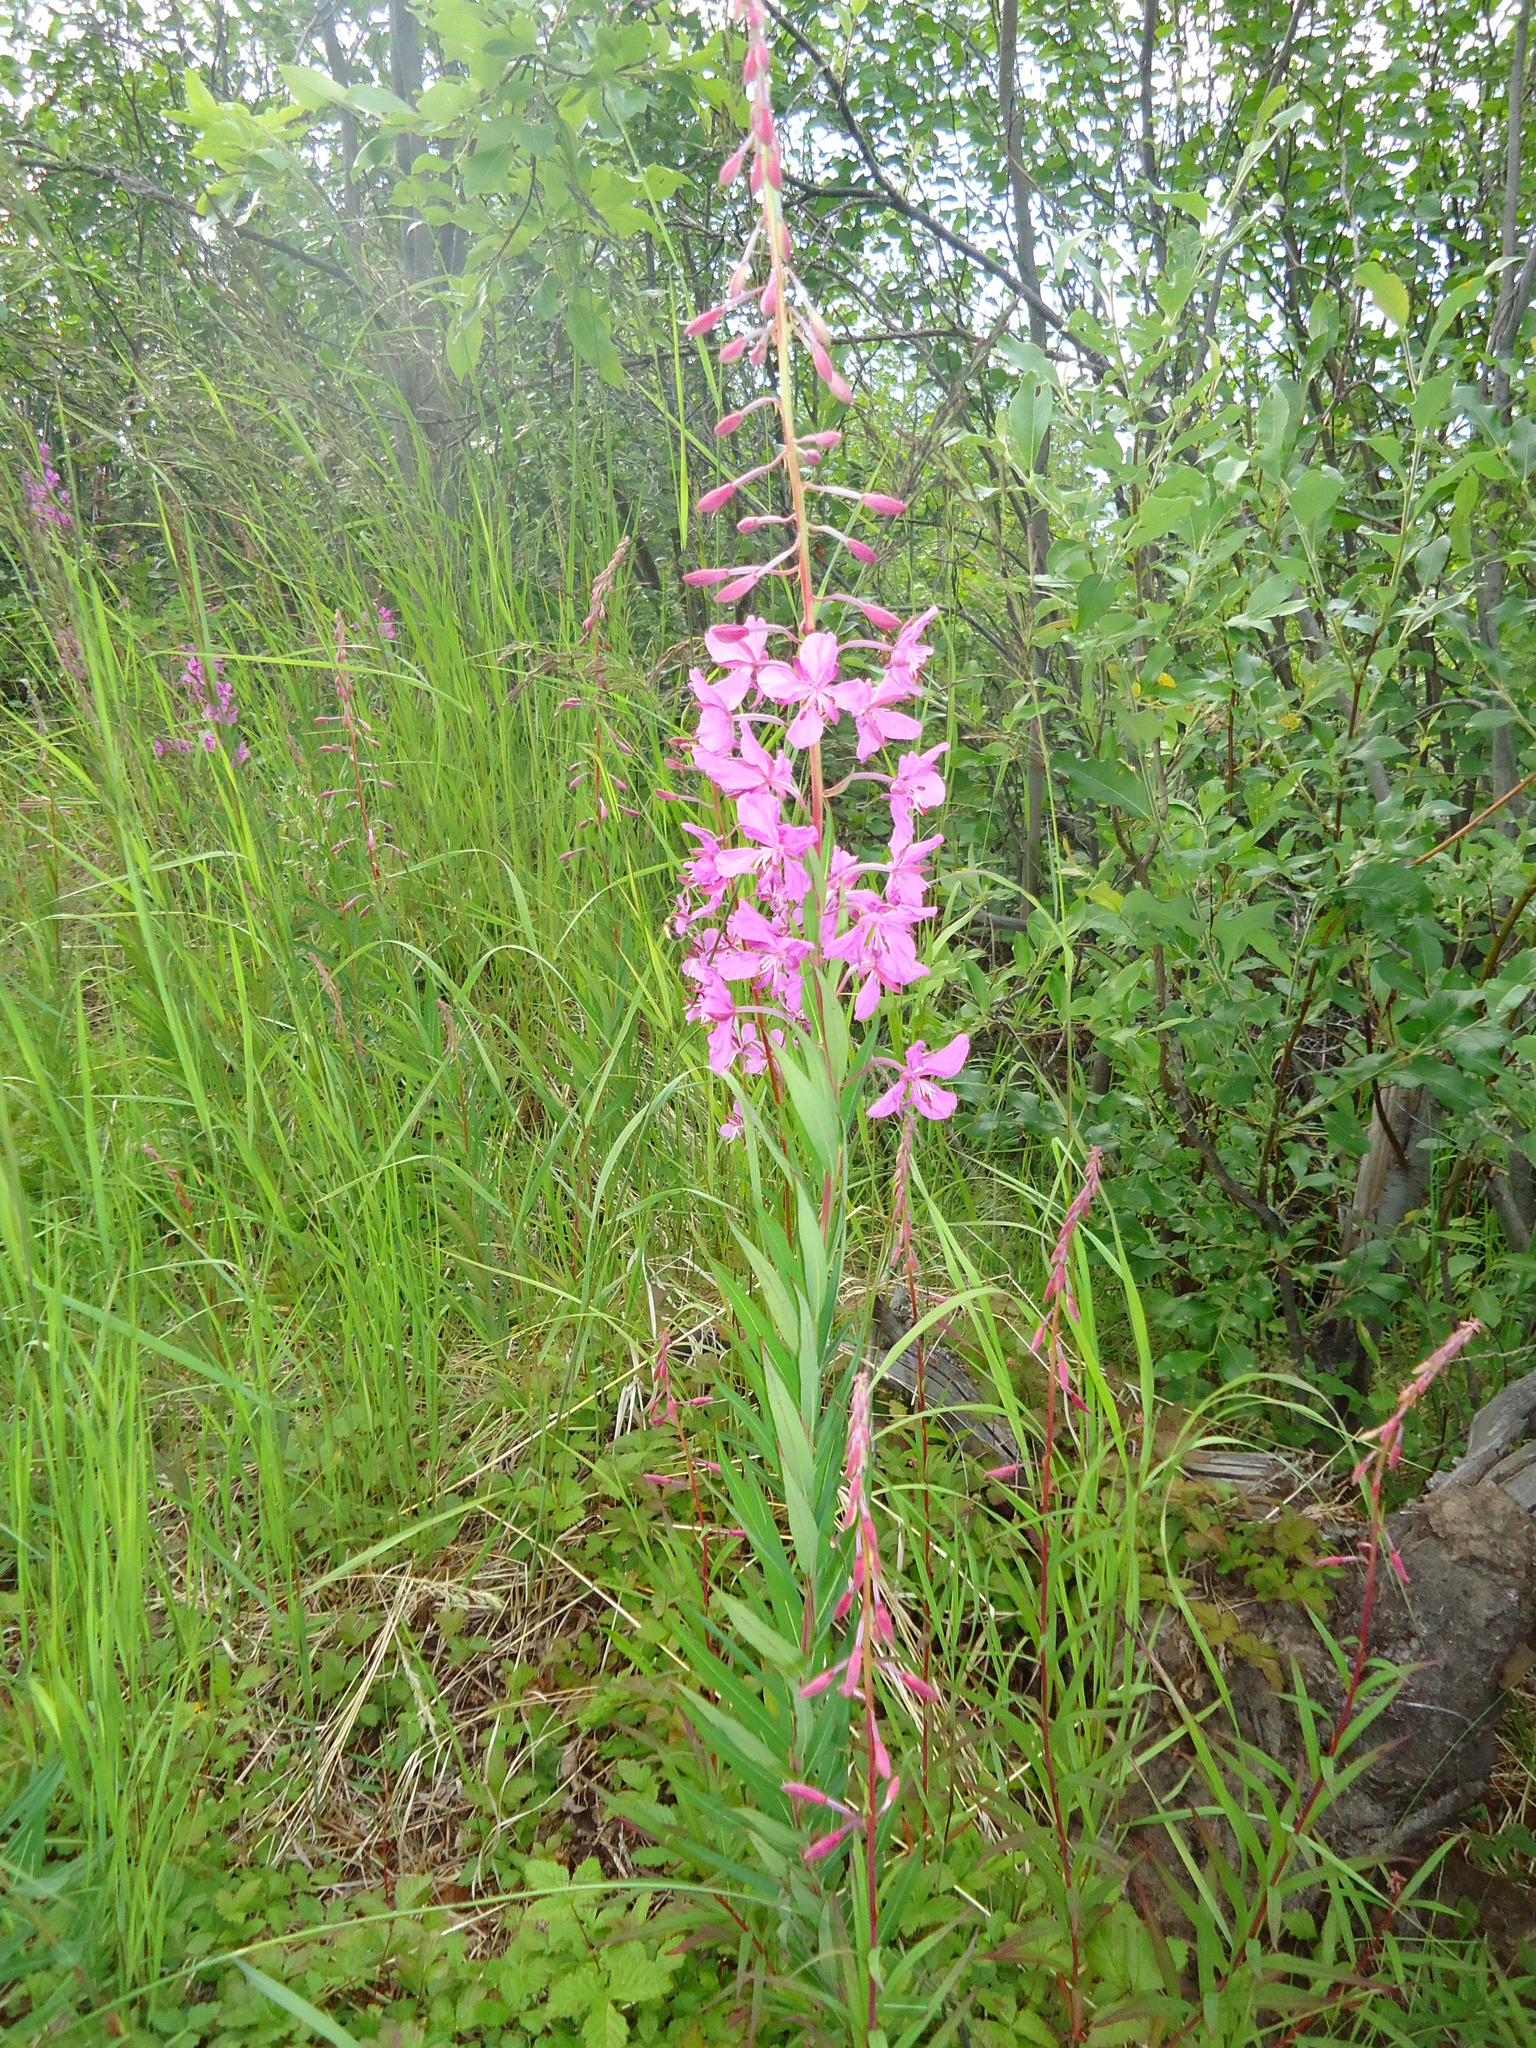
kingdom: Plantae
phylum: Tracheophyta
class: Magnoliopsida
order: Myrtales
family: Onagraceae
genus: Chamaenerion
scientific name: Chamaenerion angustifolium
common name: Fireweed
